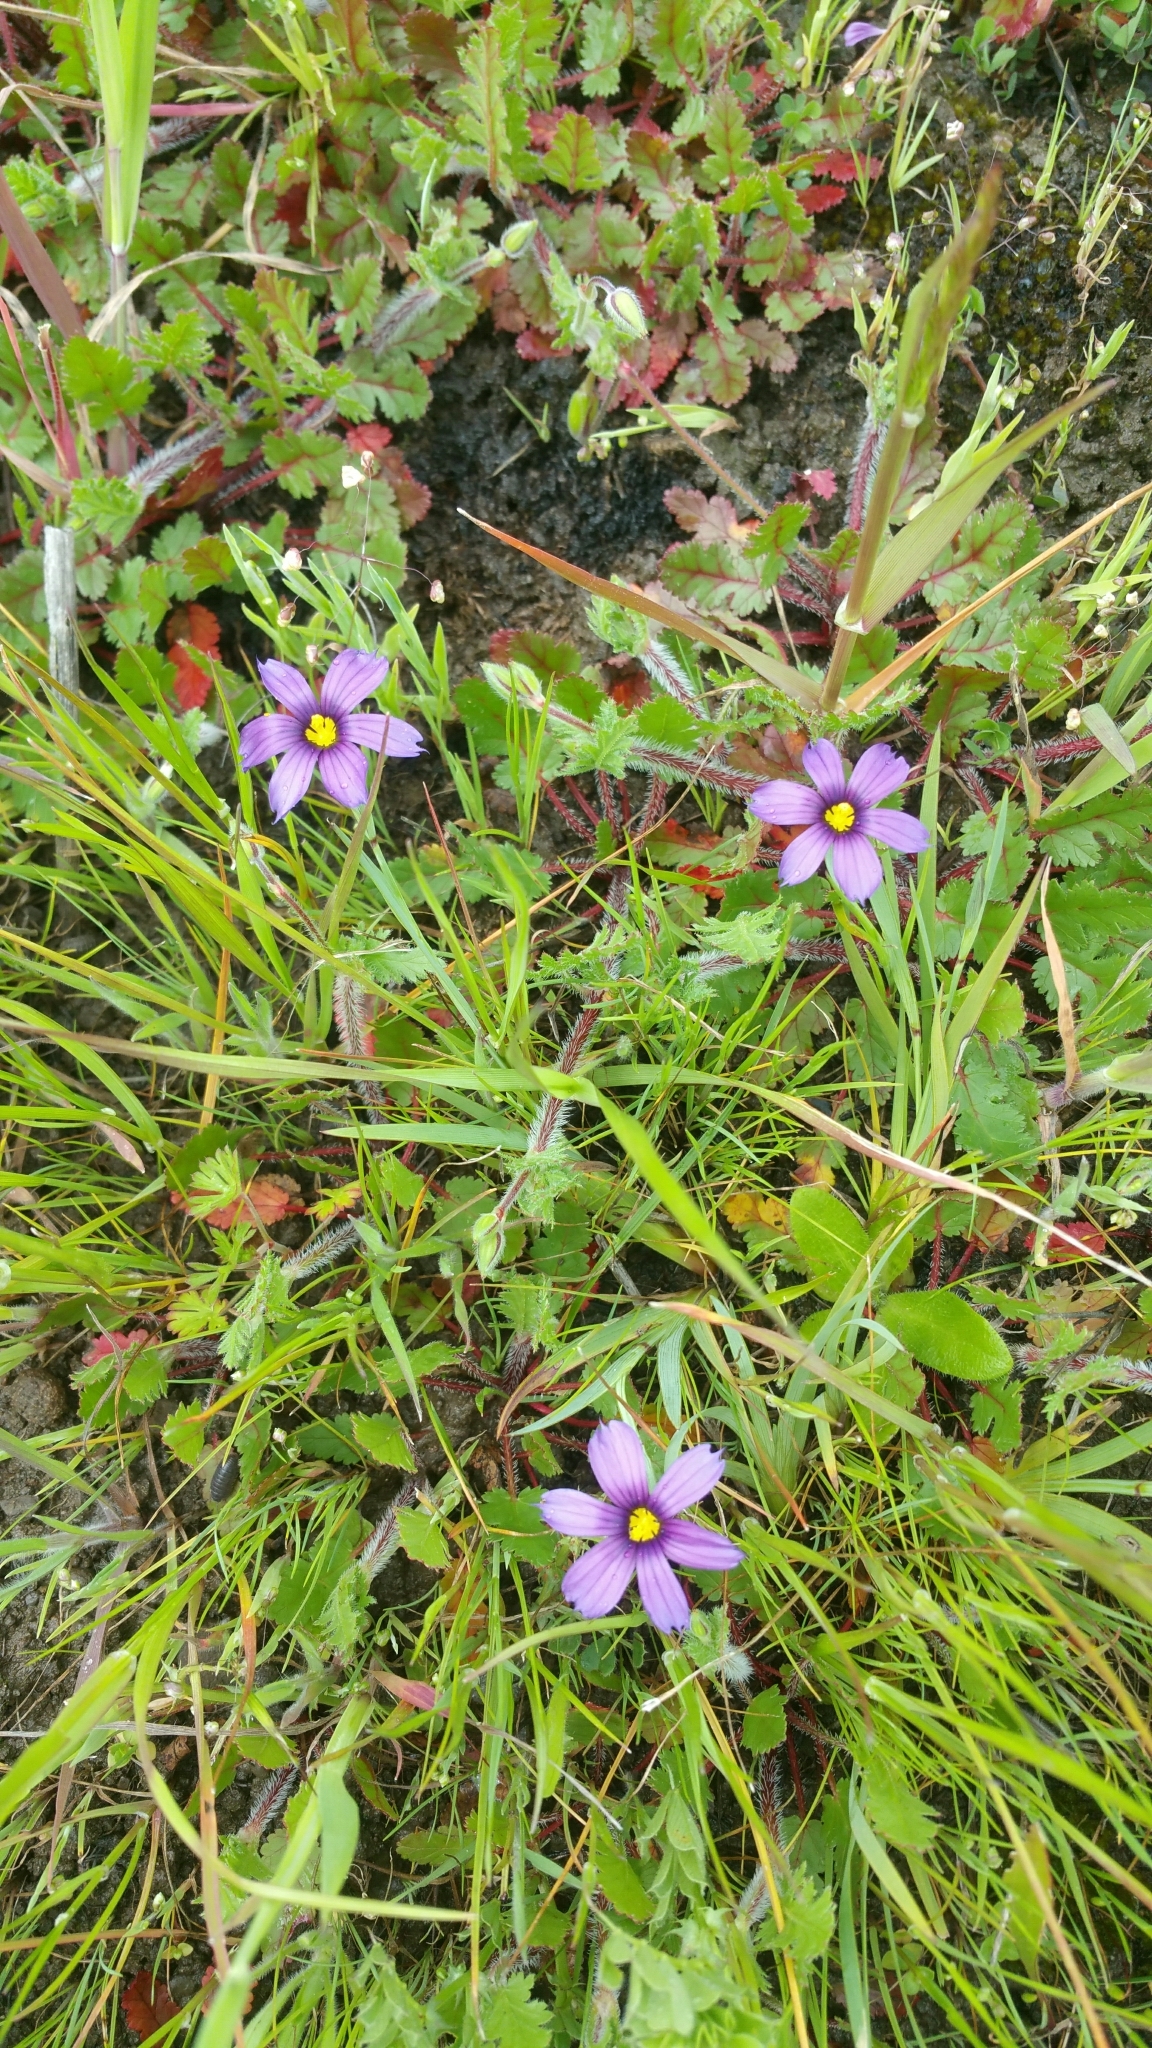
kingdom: Plantae
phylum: Tracheophyta
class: Liliopsida
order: Asparagales
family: Iridaceae
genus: Sisyrinchium
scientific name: Sisyrinchium bellum
